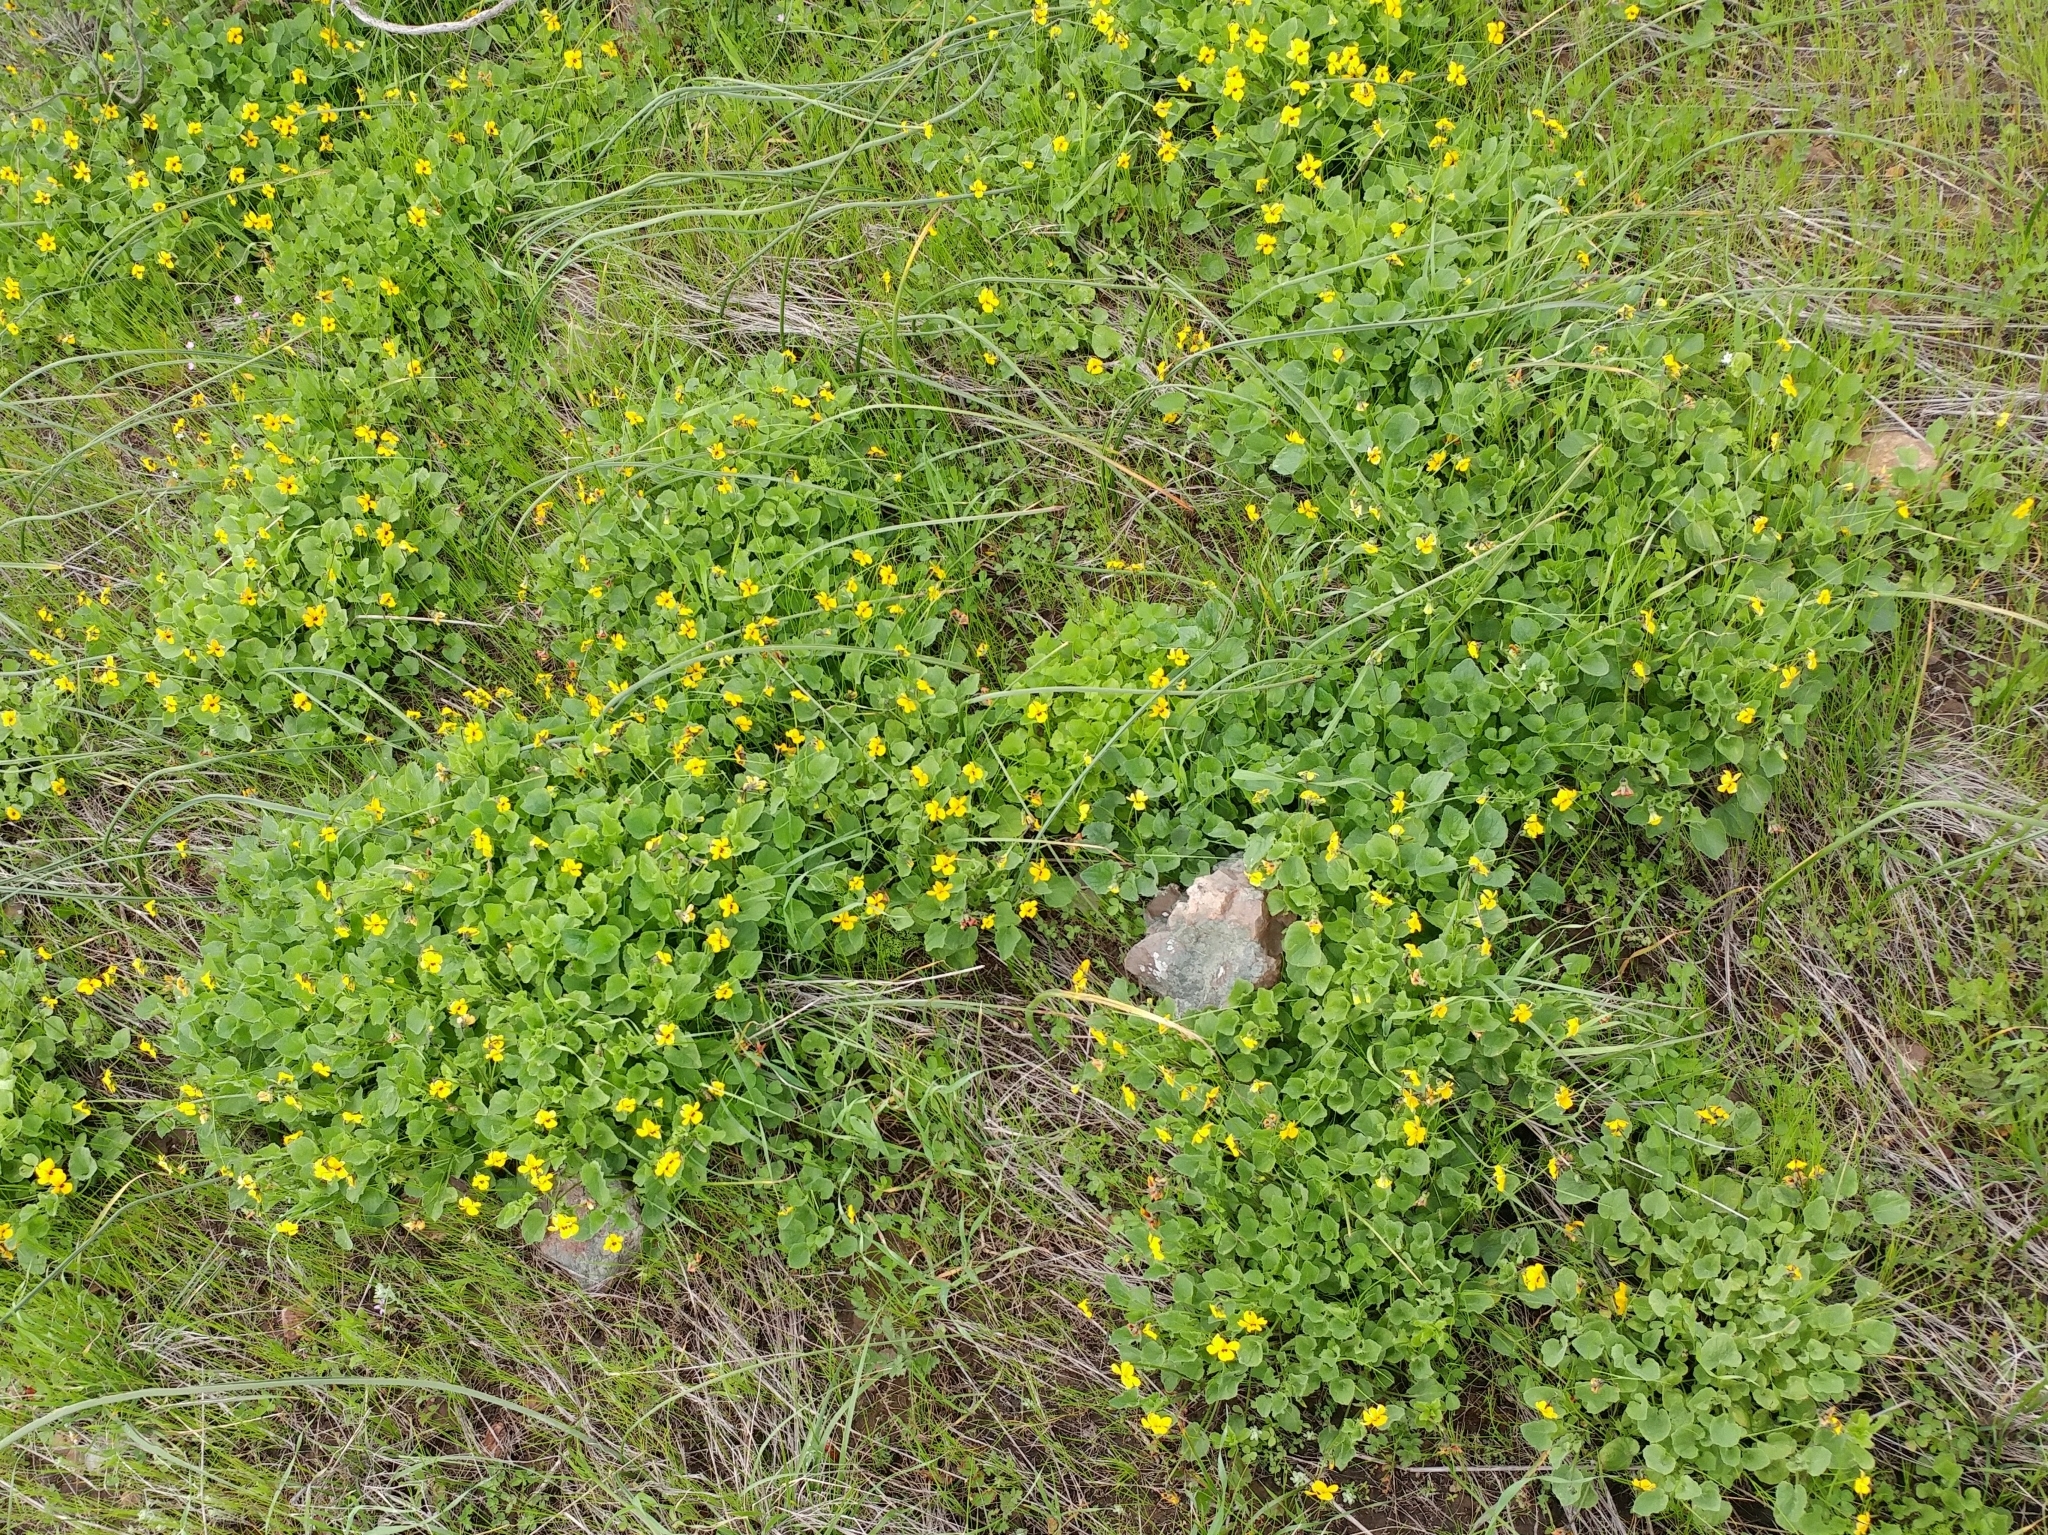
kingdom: Plantae
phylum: Tracheophyta
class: Magnoliopsida
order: Malpighiales
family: Violaceae
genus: Viola
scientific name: Viola pedunculata
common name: California golden violet
